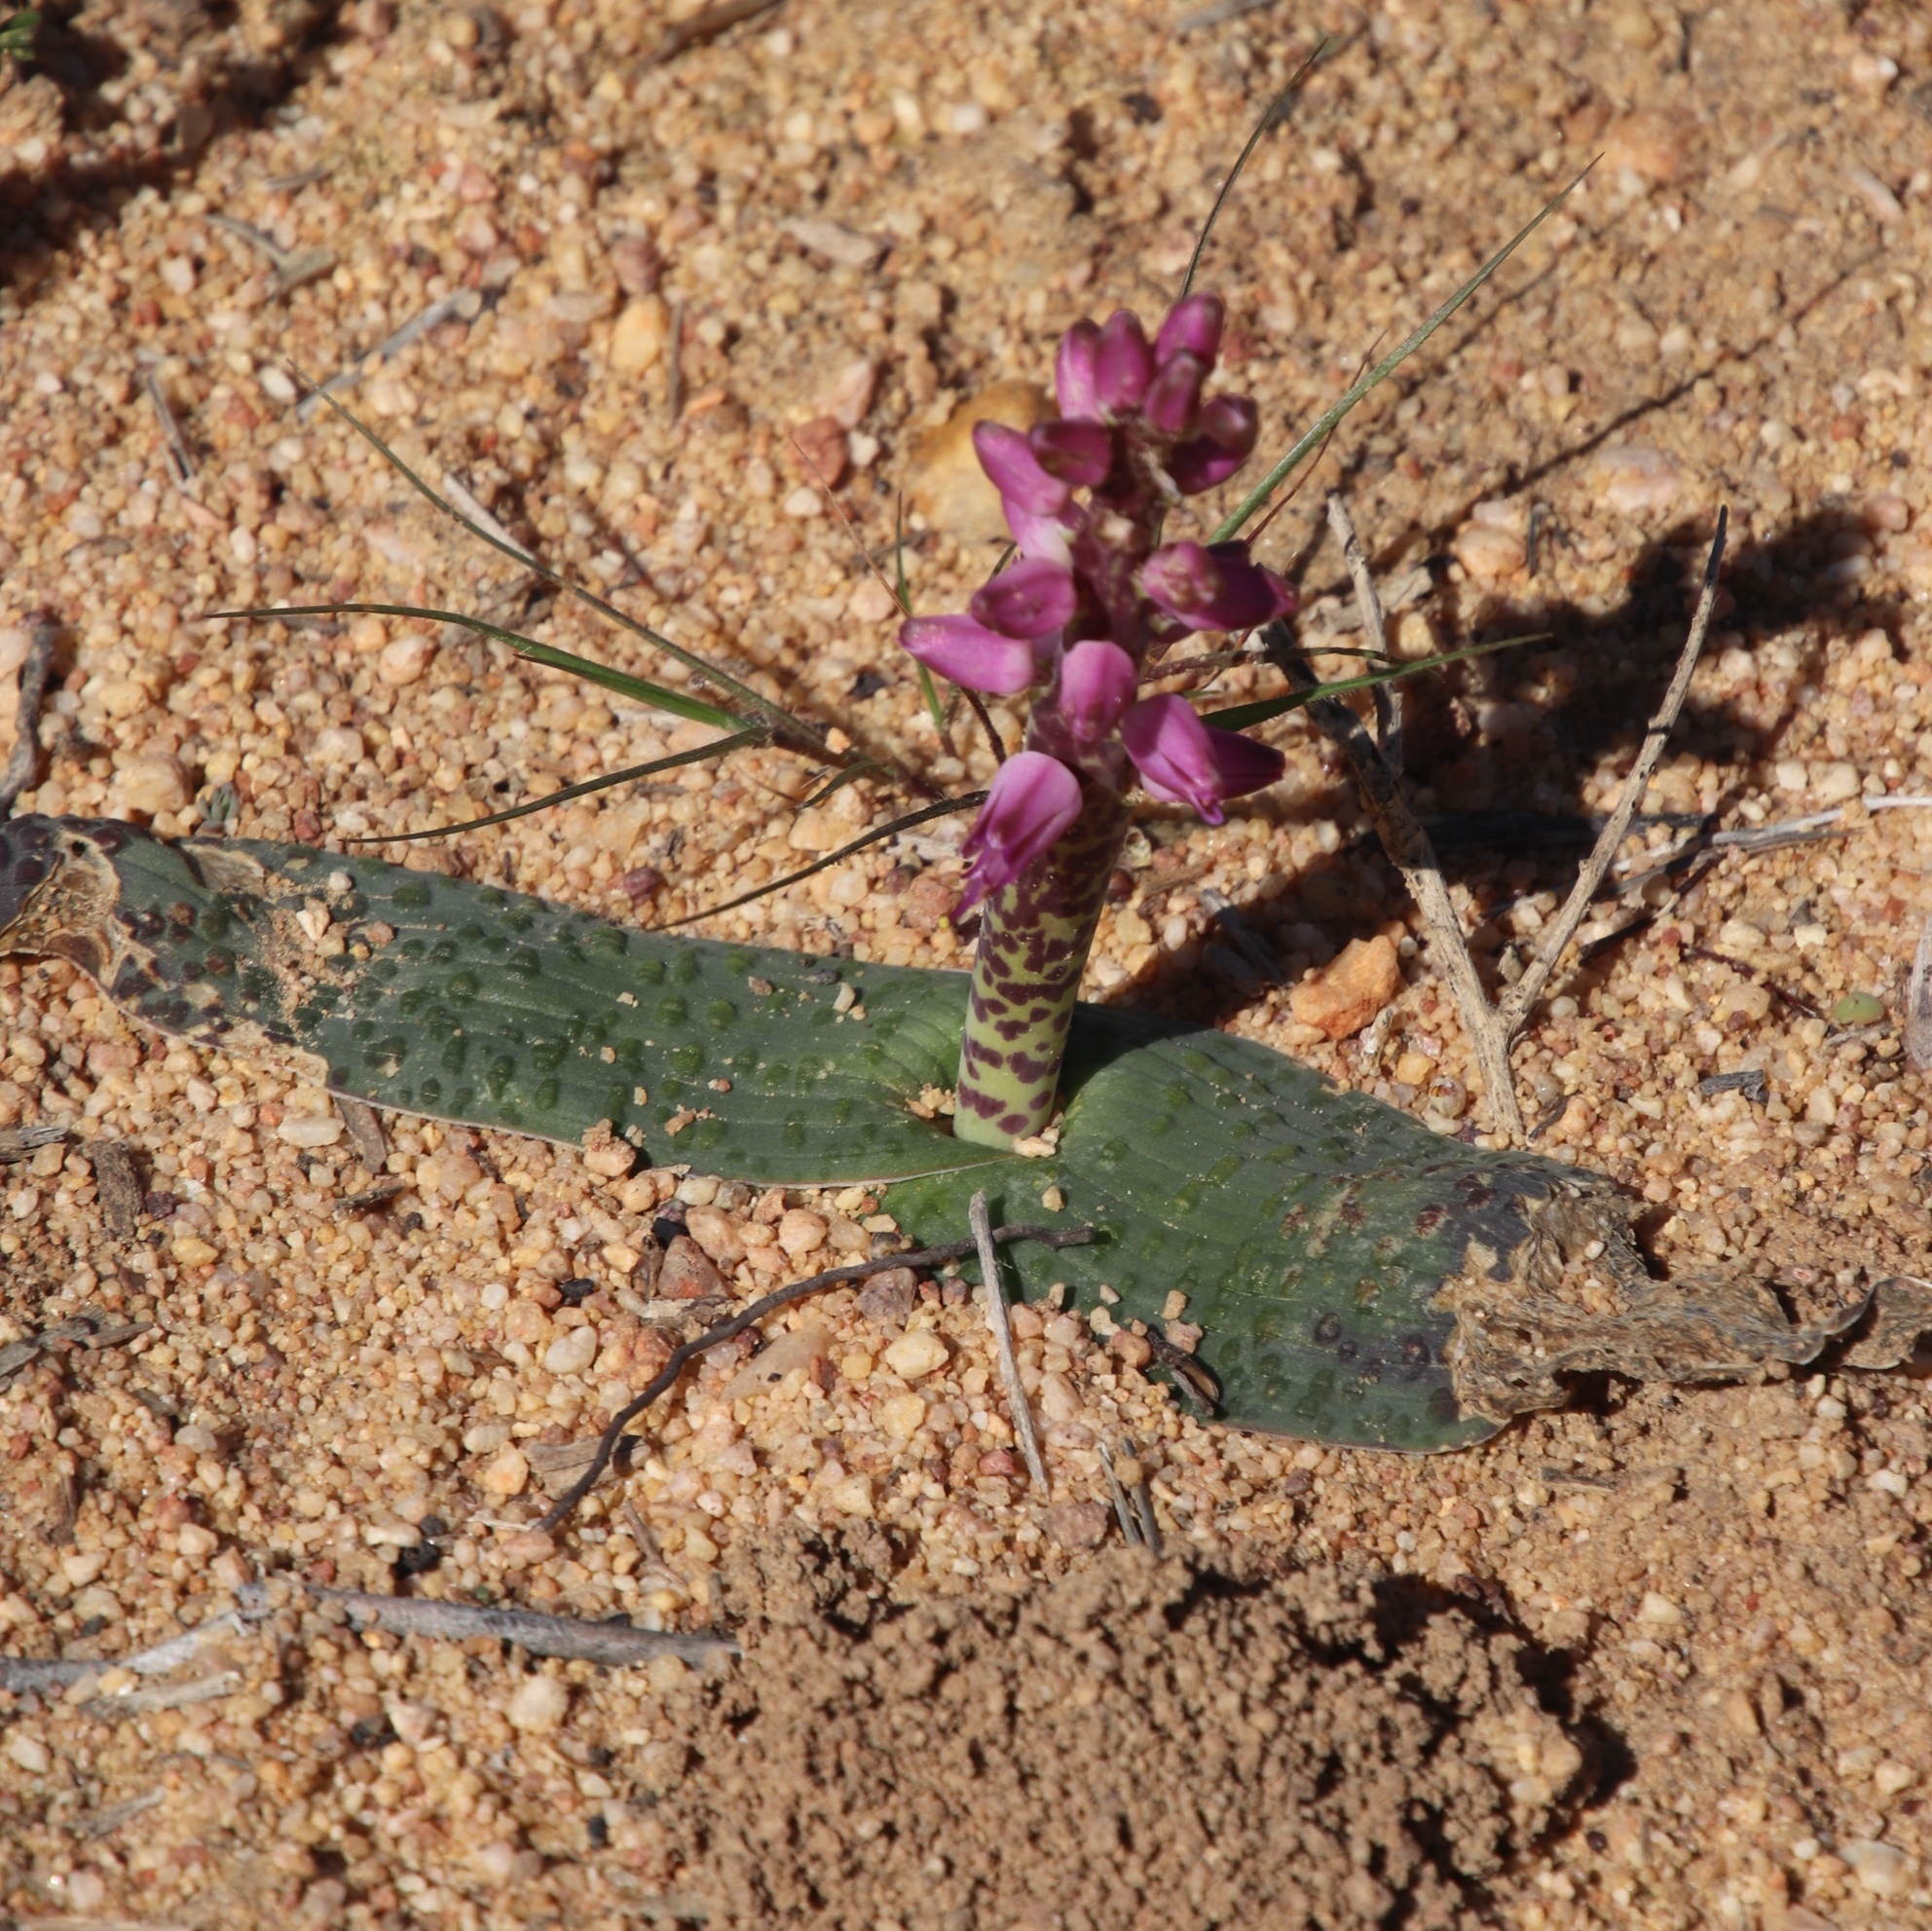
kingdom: Plantae
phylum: Tracheophyta
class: Liliopsida
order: Asparagales
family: Asparagaceae
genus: Lachenalia
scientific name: Lachenalia nardousbergensis
